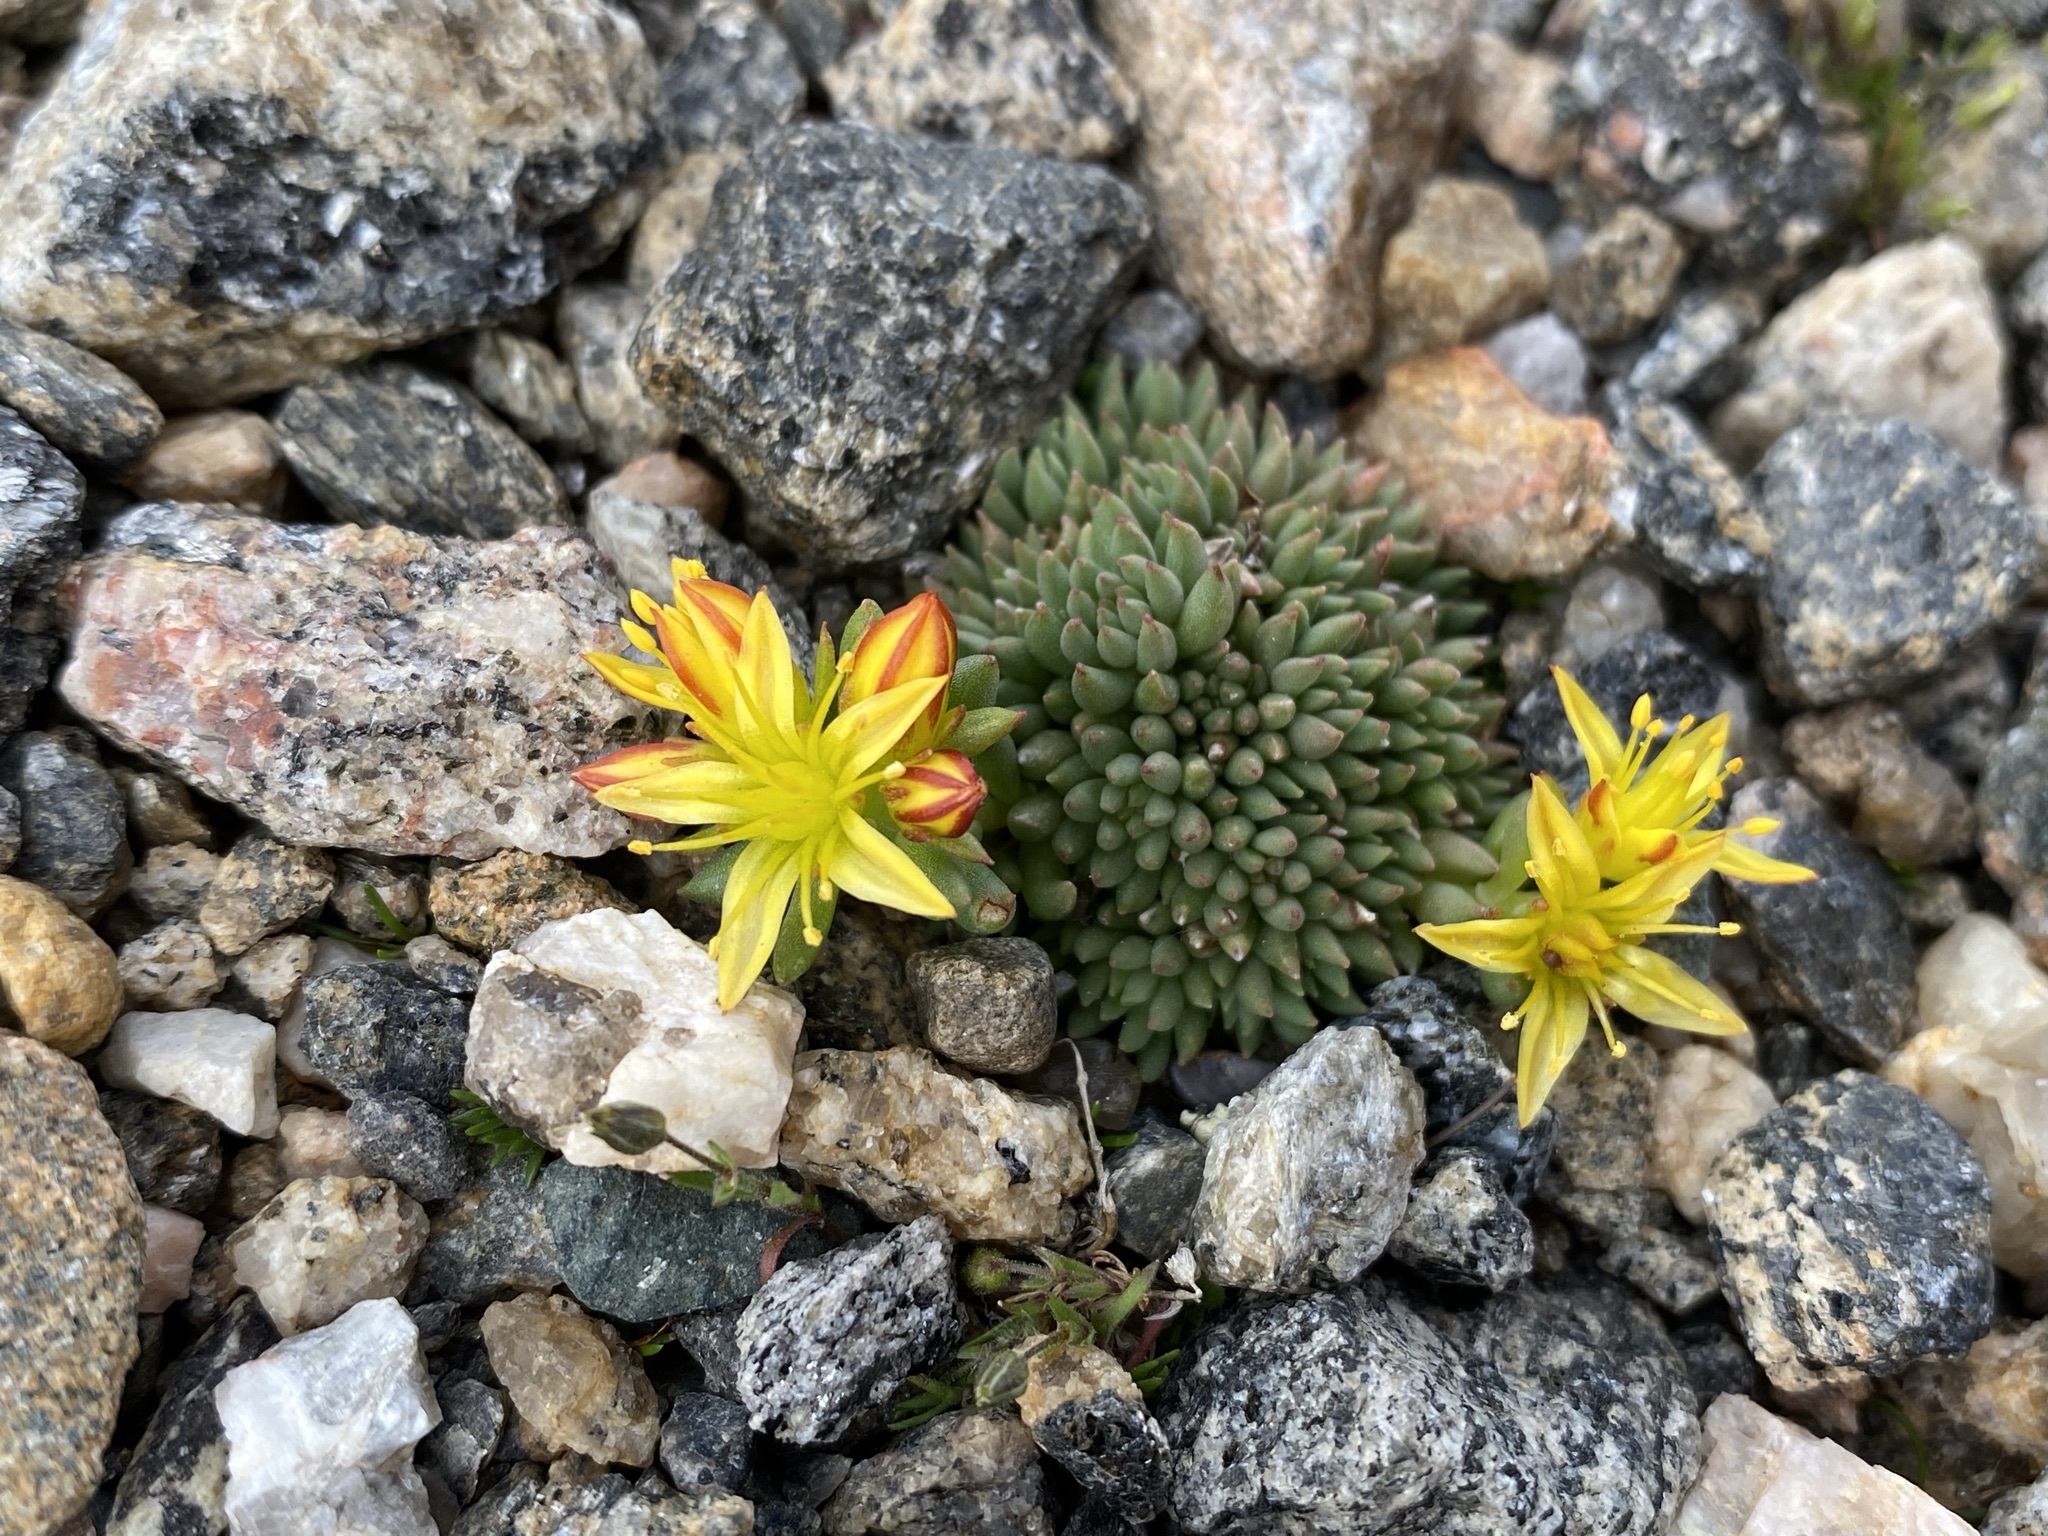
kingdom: Plantae
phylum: Tracheophyta
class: Magnoliopsida
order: Saxifragales
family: Crassulaceae
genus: Sedum
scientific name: Sedum lanceolatum
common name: Common stonecrop
